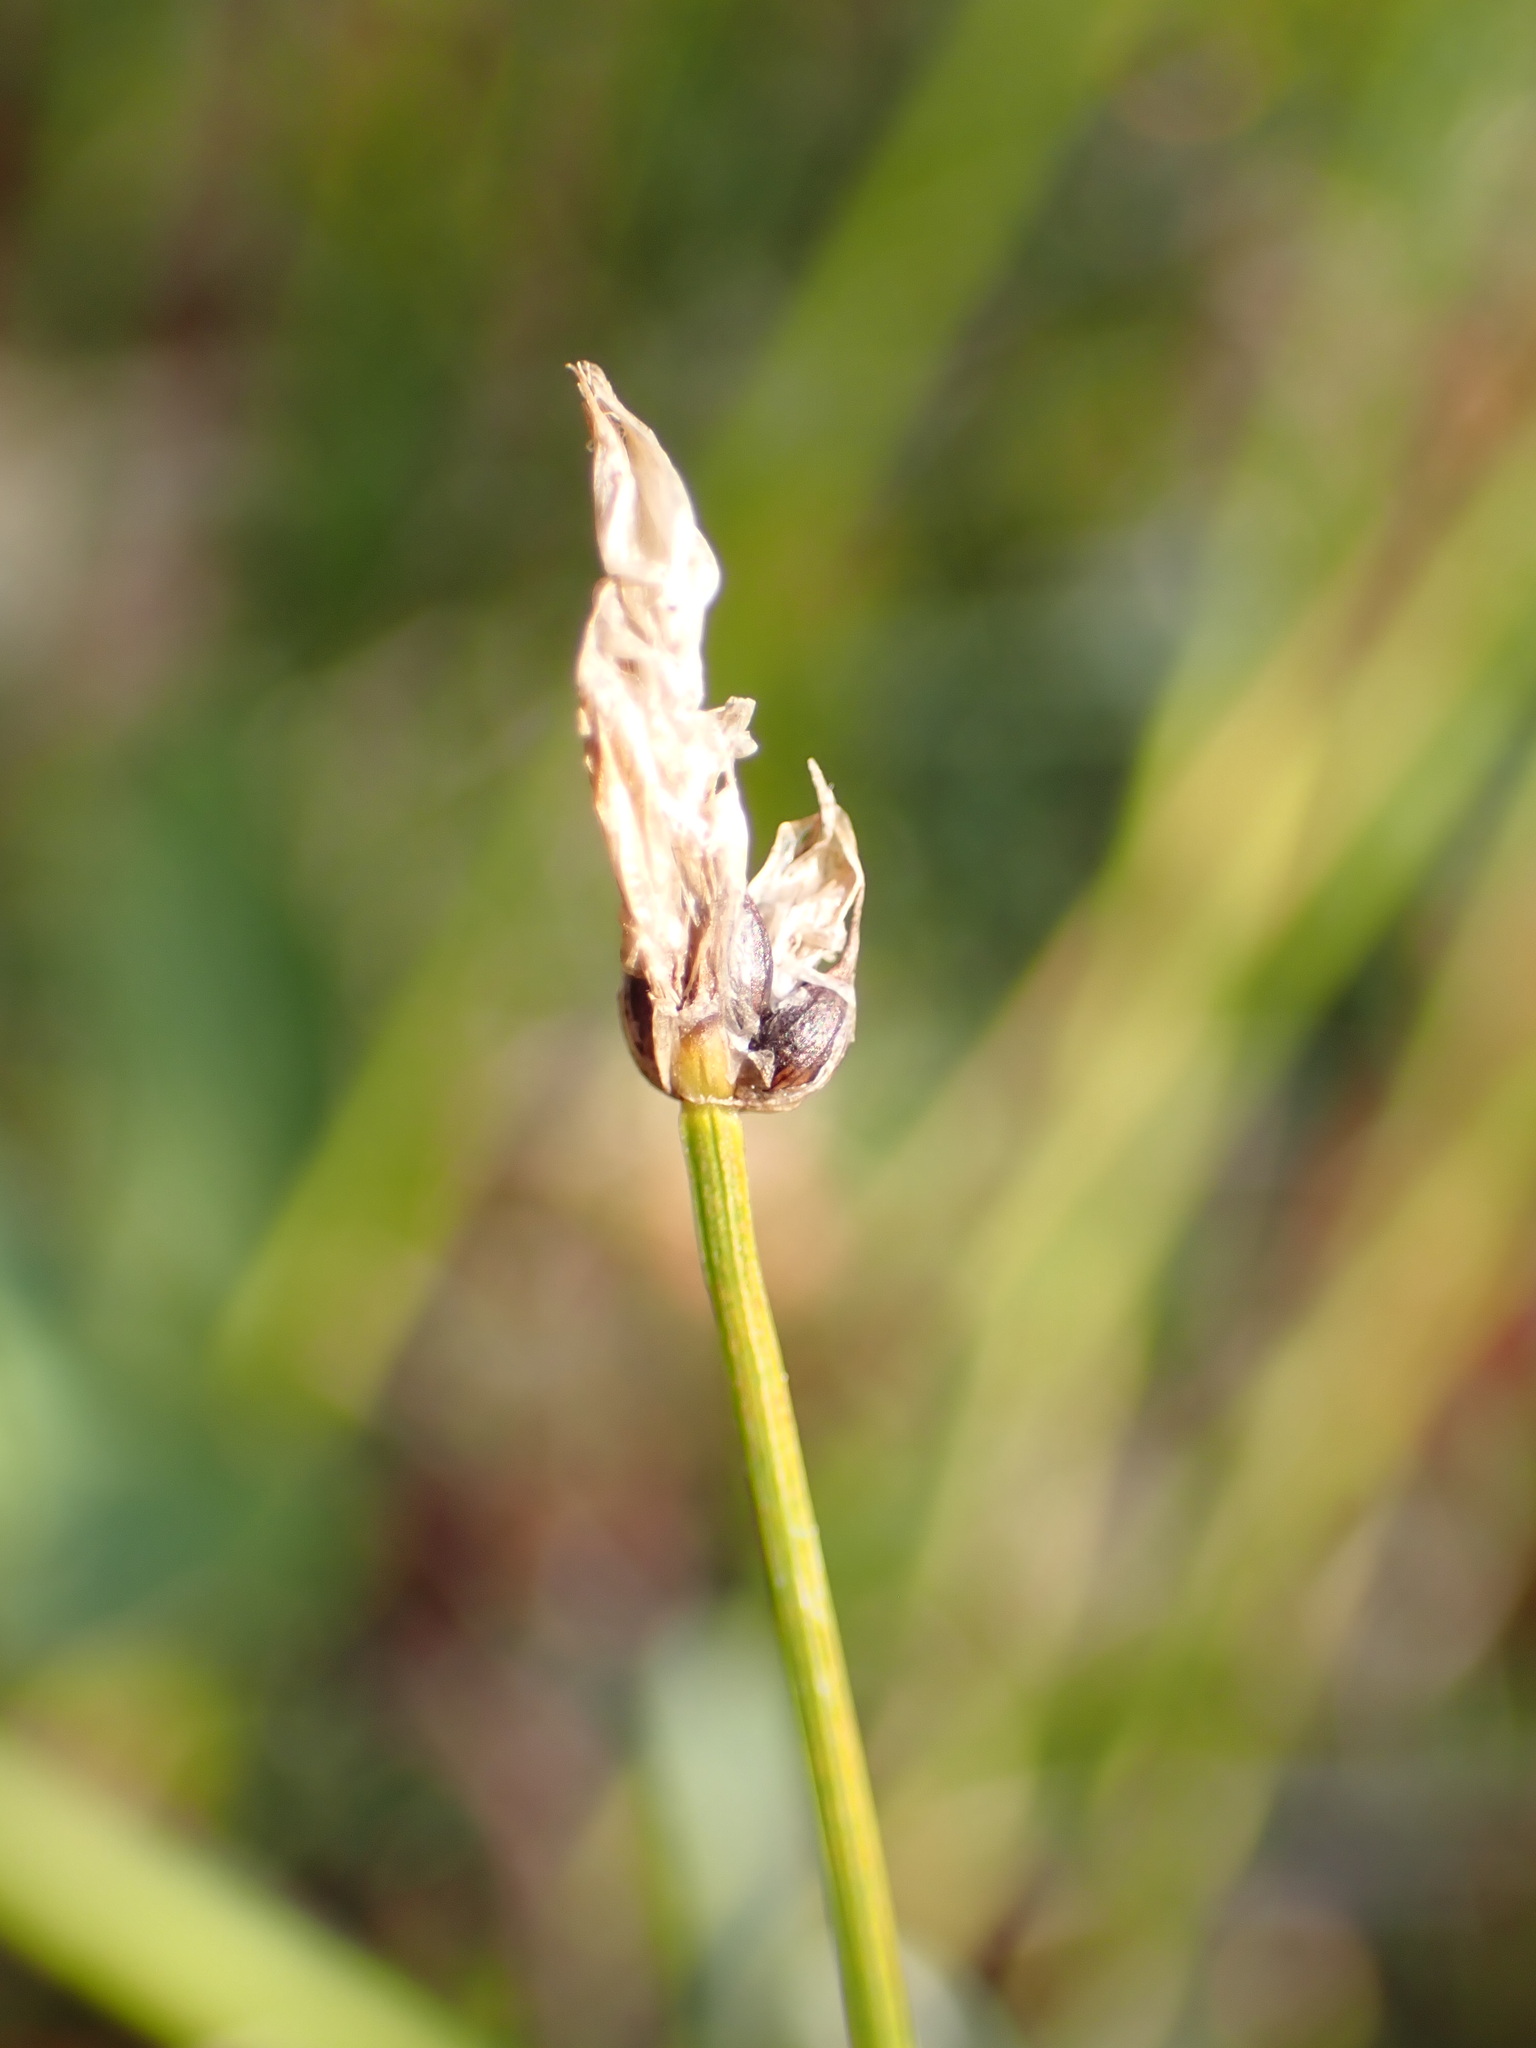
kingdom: Plantae
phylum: Tracheophyta
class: Liliopsida
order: Poales
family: Cyperaceae
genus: Carex
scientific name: Carex chordorrhiza
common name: String sedge
